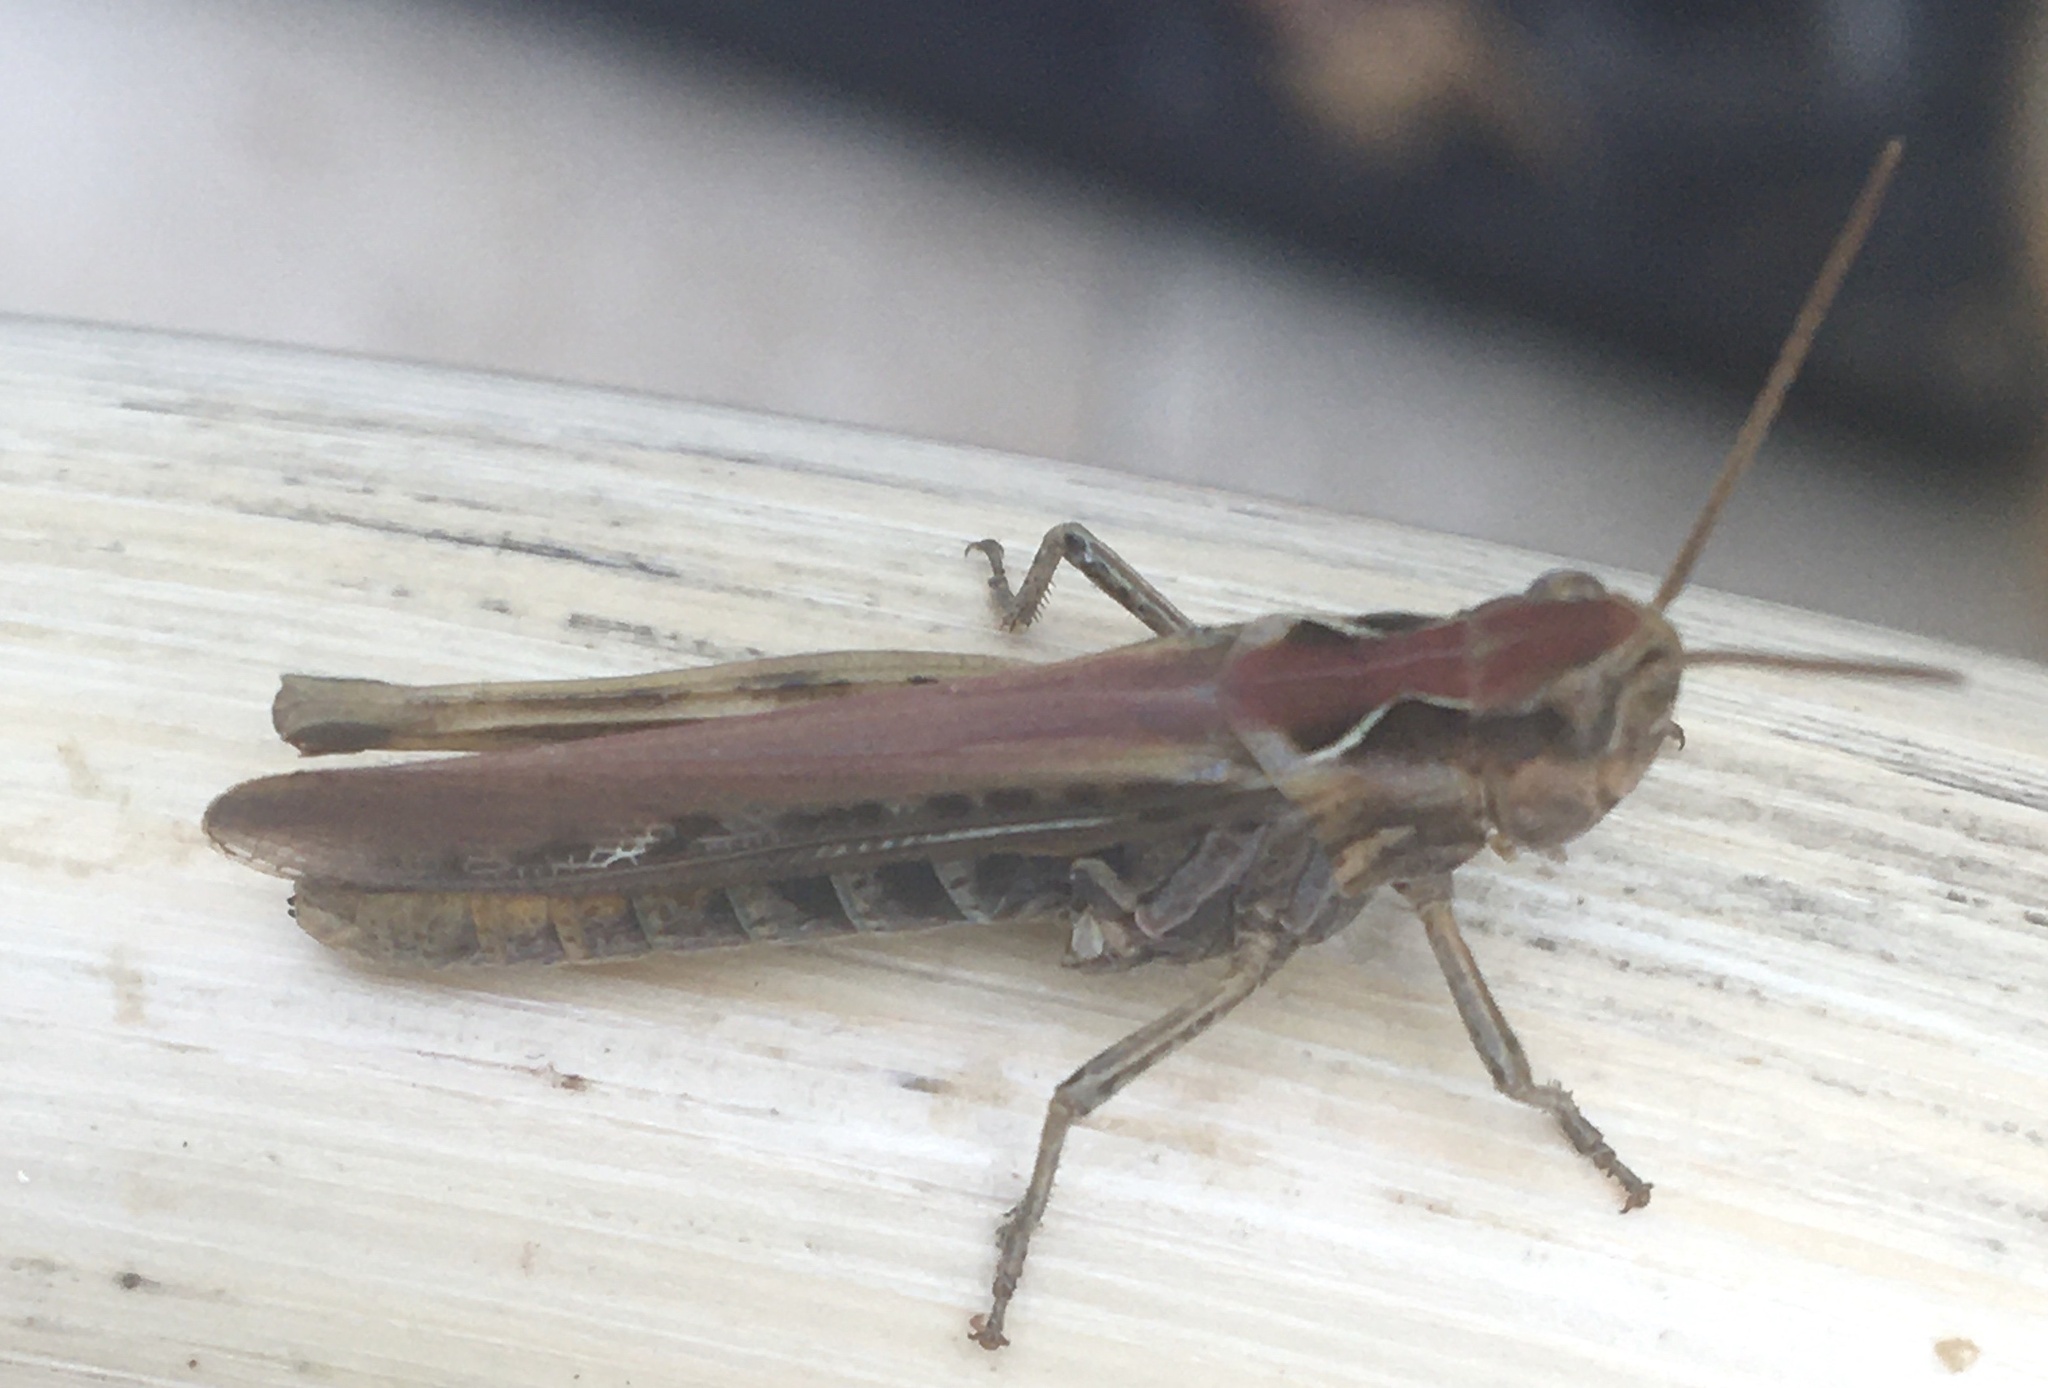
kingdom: Animalia
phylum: Arthropoda
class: Insecta
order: Orthoptera
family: Acrididae
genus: Chorthippus
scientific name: Chorthippus brunneus
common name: Field grasshopper
